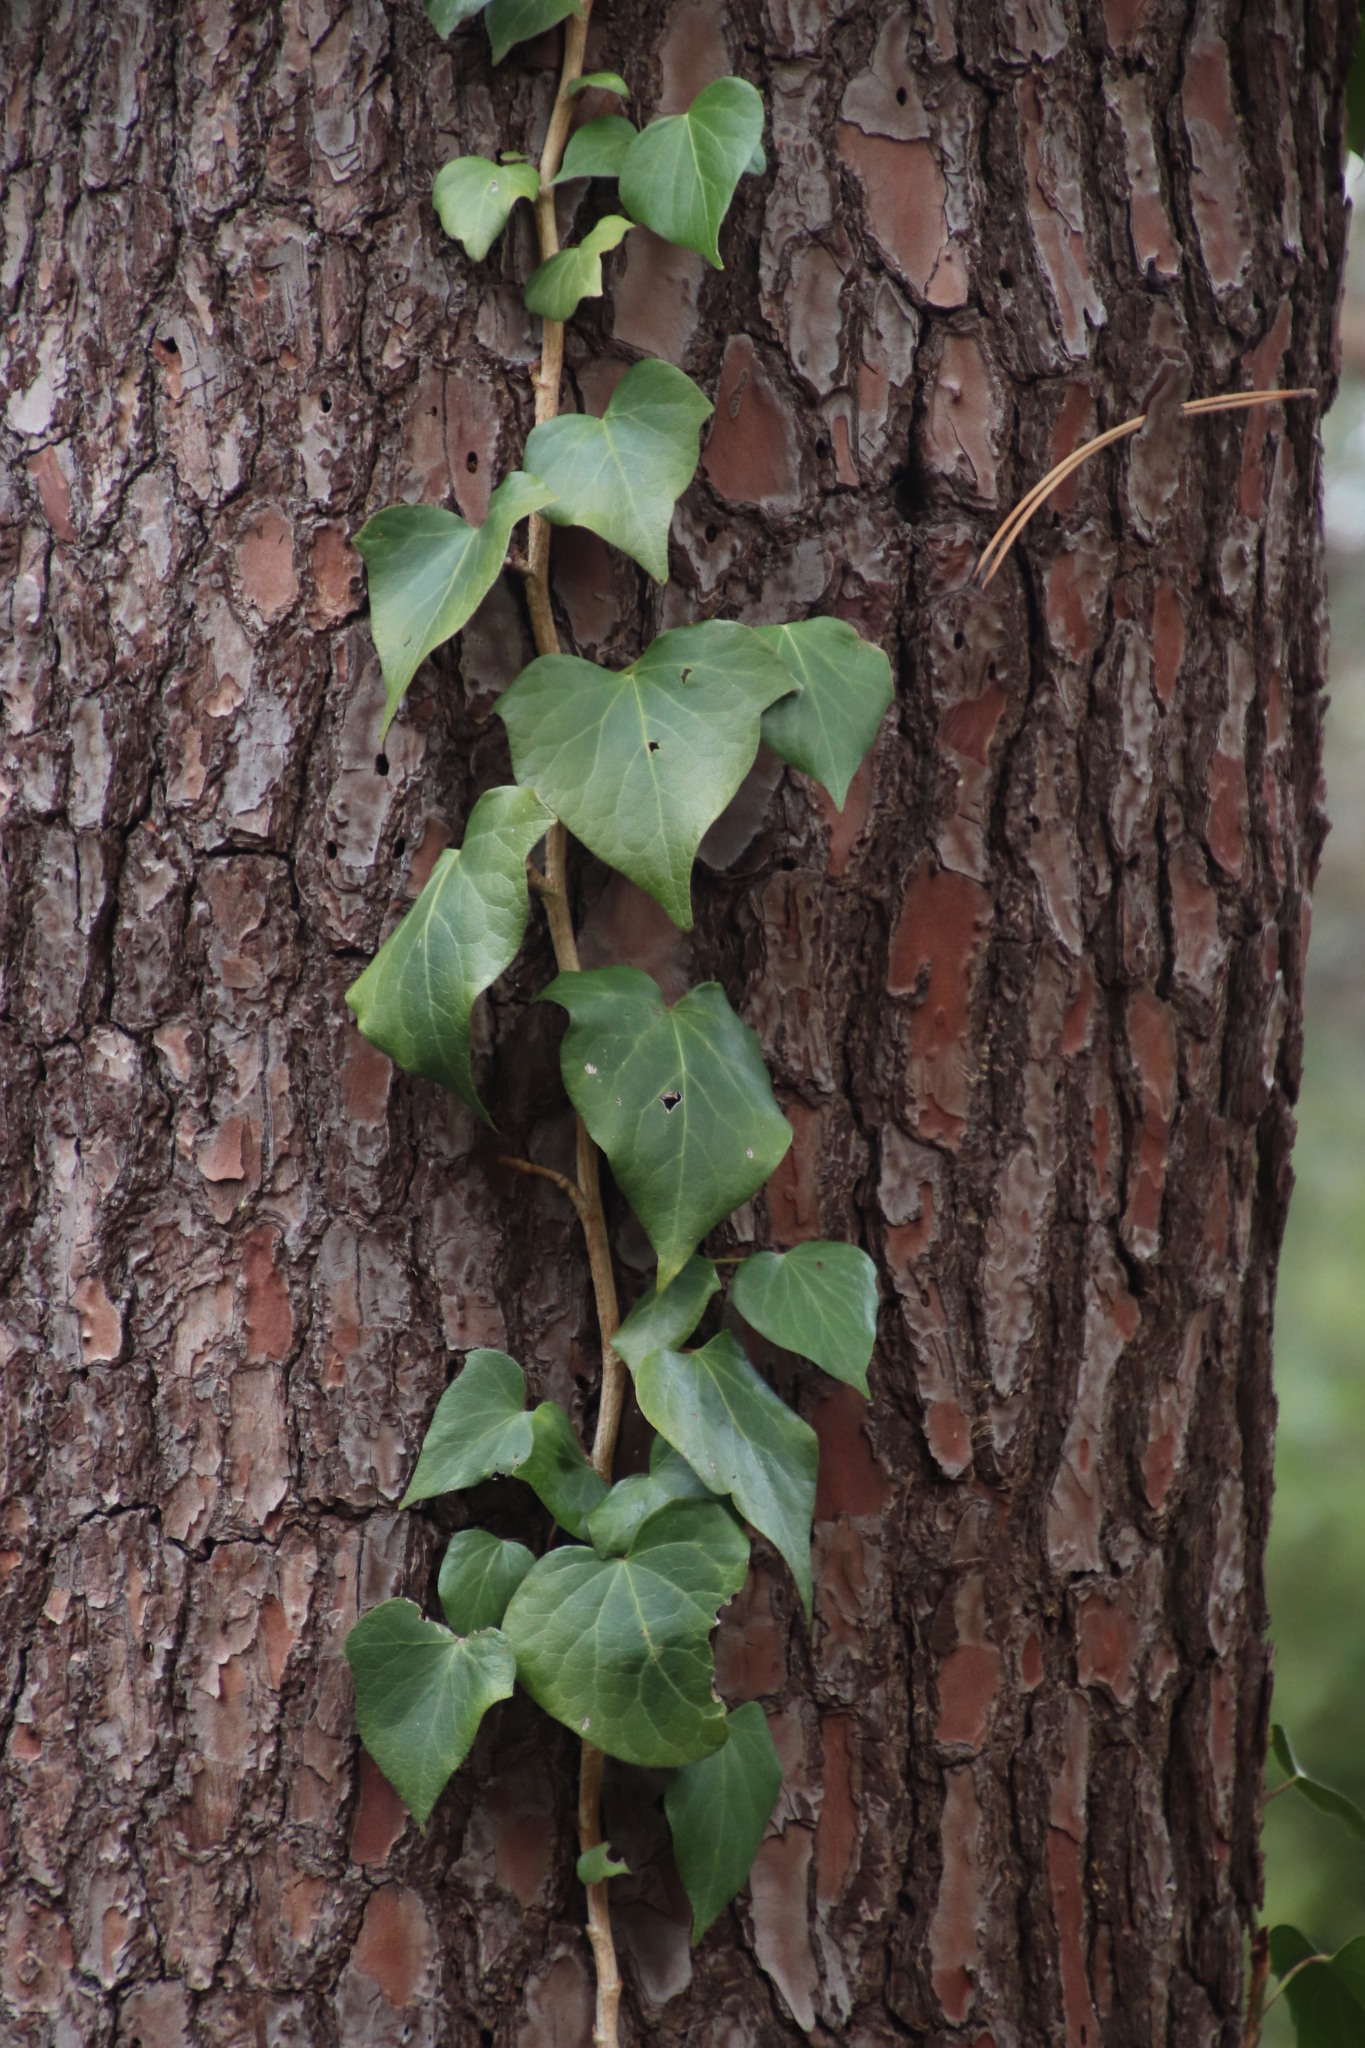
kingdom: Plantae
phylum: Tracheophyta
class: Magnoliopsida
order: Apiales
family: Araliaceae
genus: Hedera
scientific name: Hedera canariensis
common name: Madeira ivy
